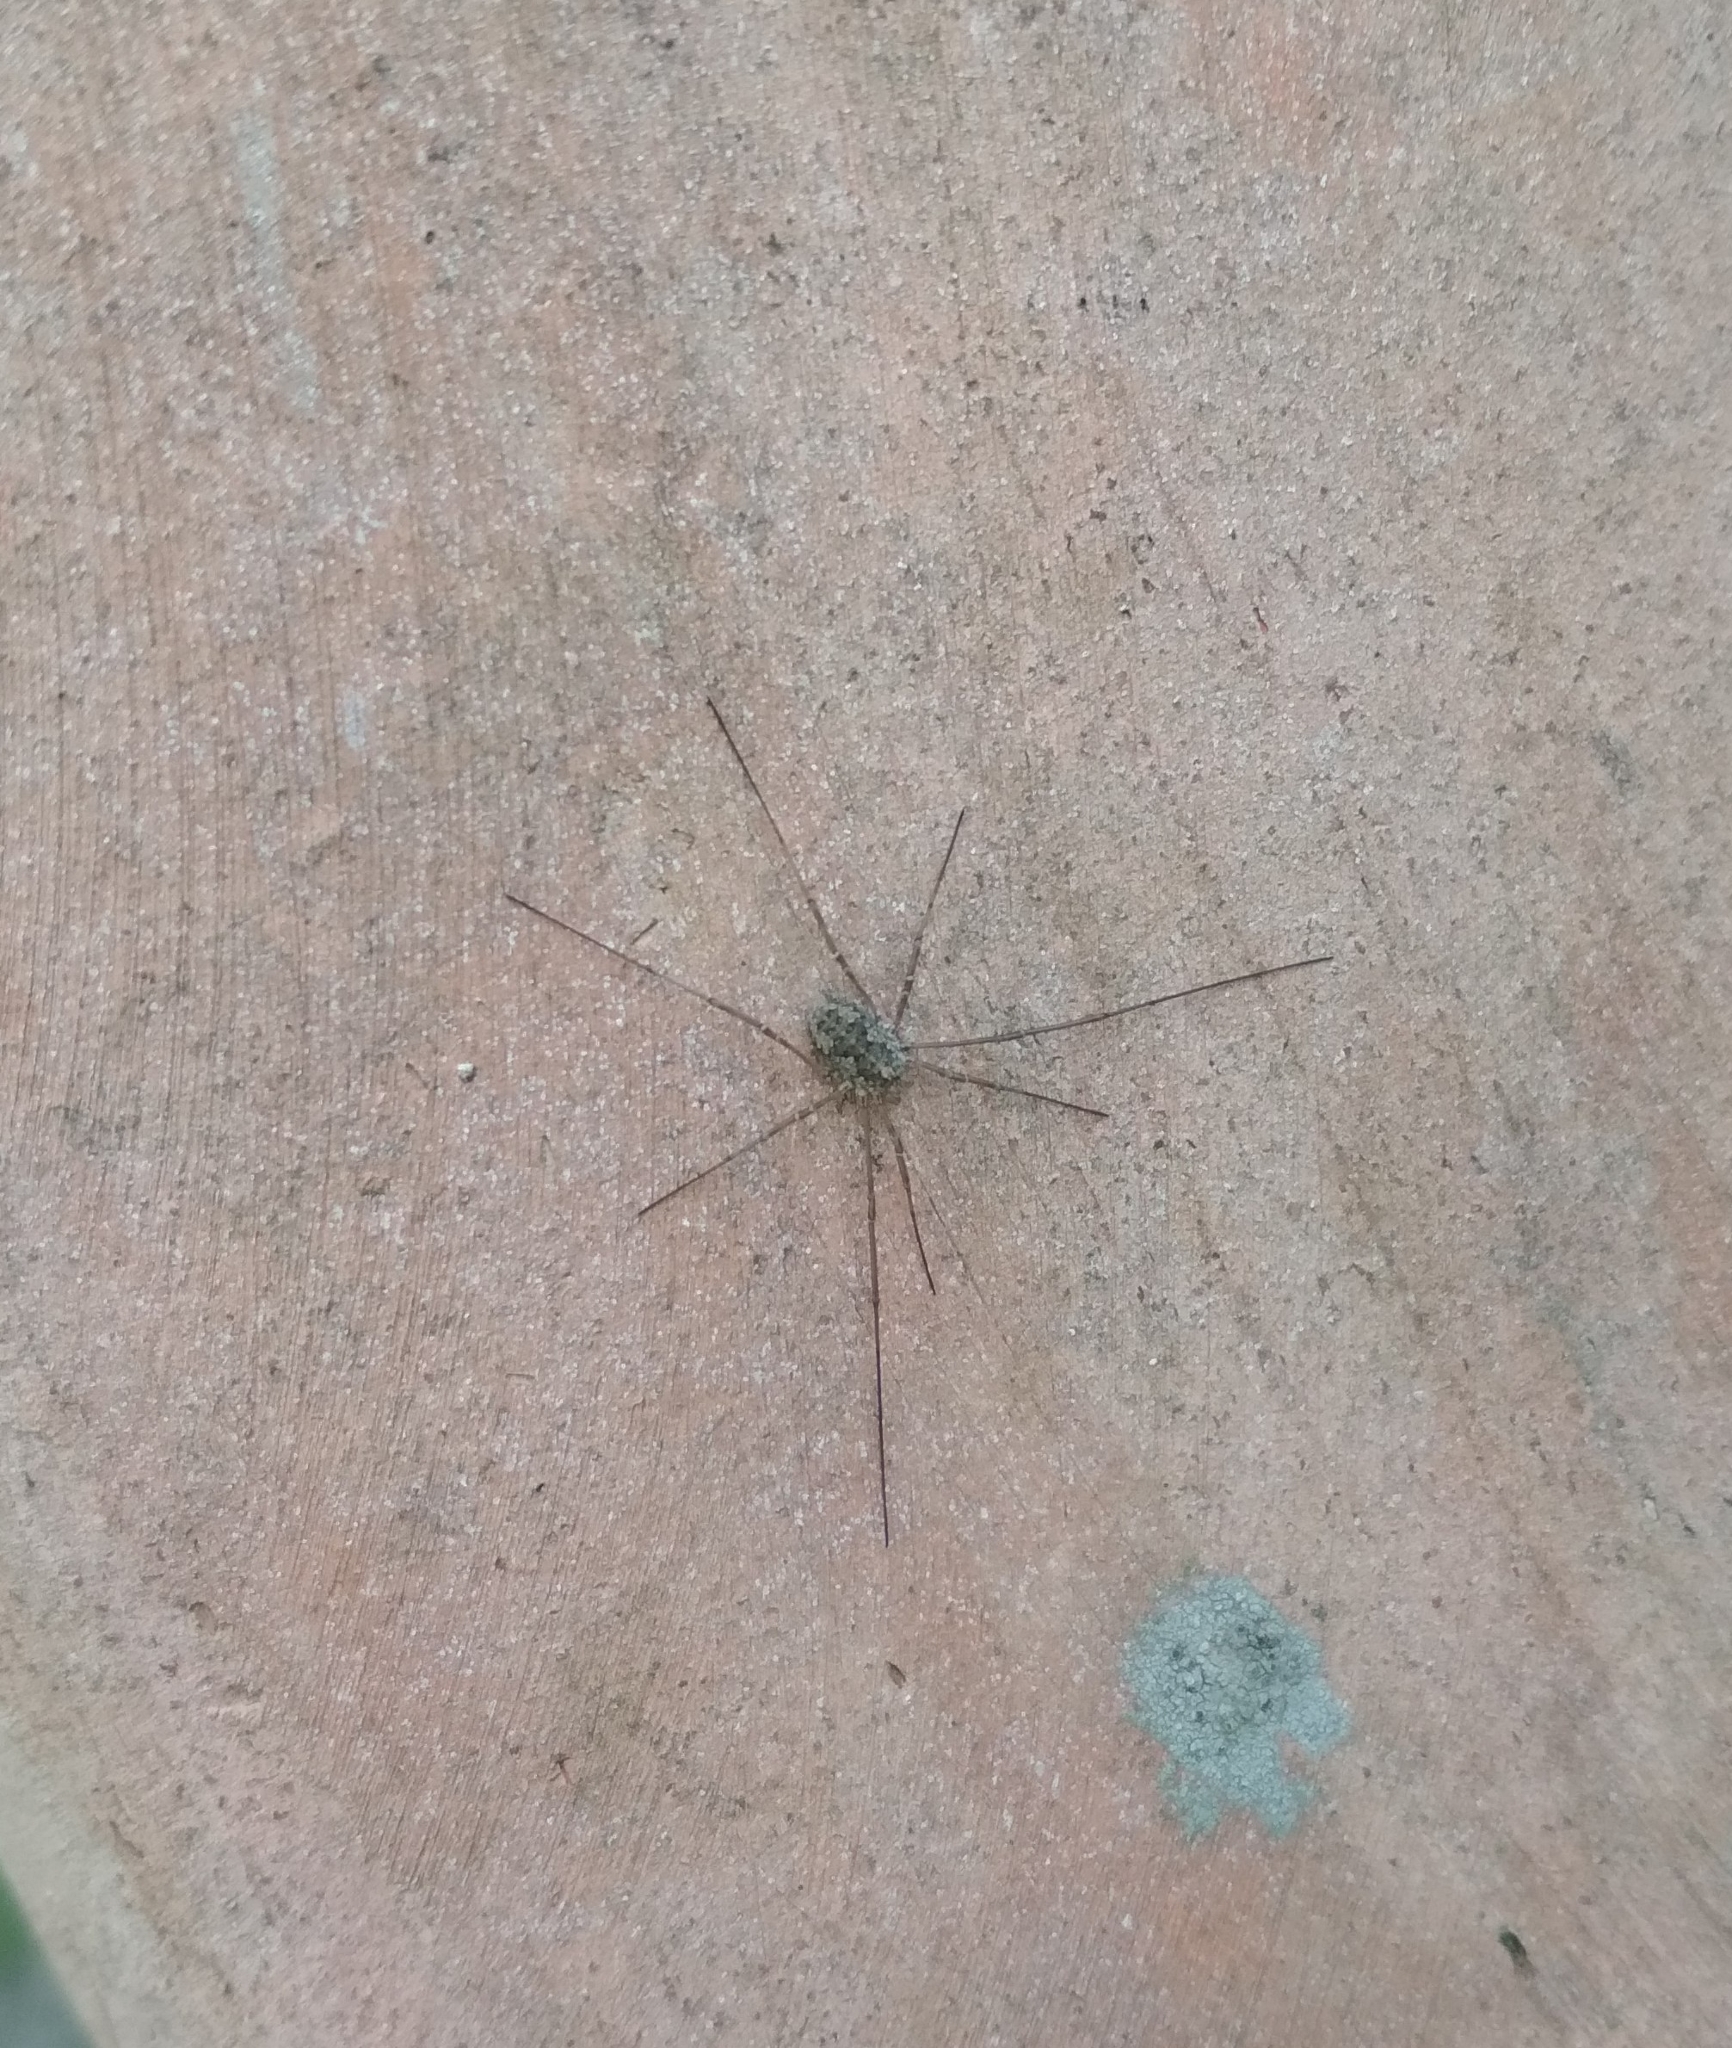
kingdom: Animalia
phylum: Arthropoda
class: Arachnida
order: Opiliones
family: Phalangiidae
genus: Phalangium
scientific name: Phalangium opilio
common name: Daddy longleg
